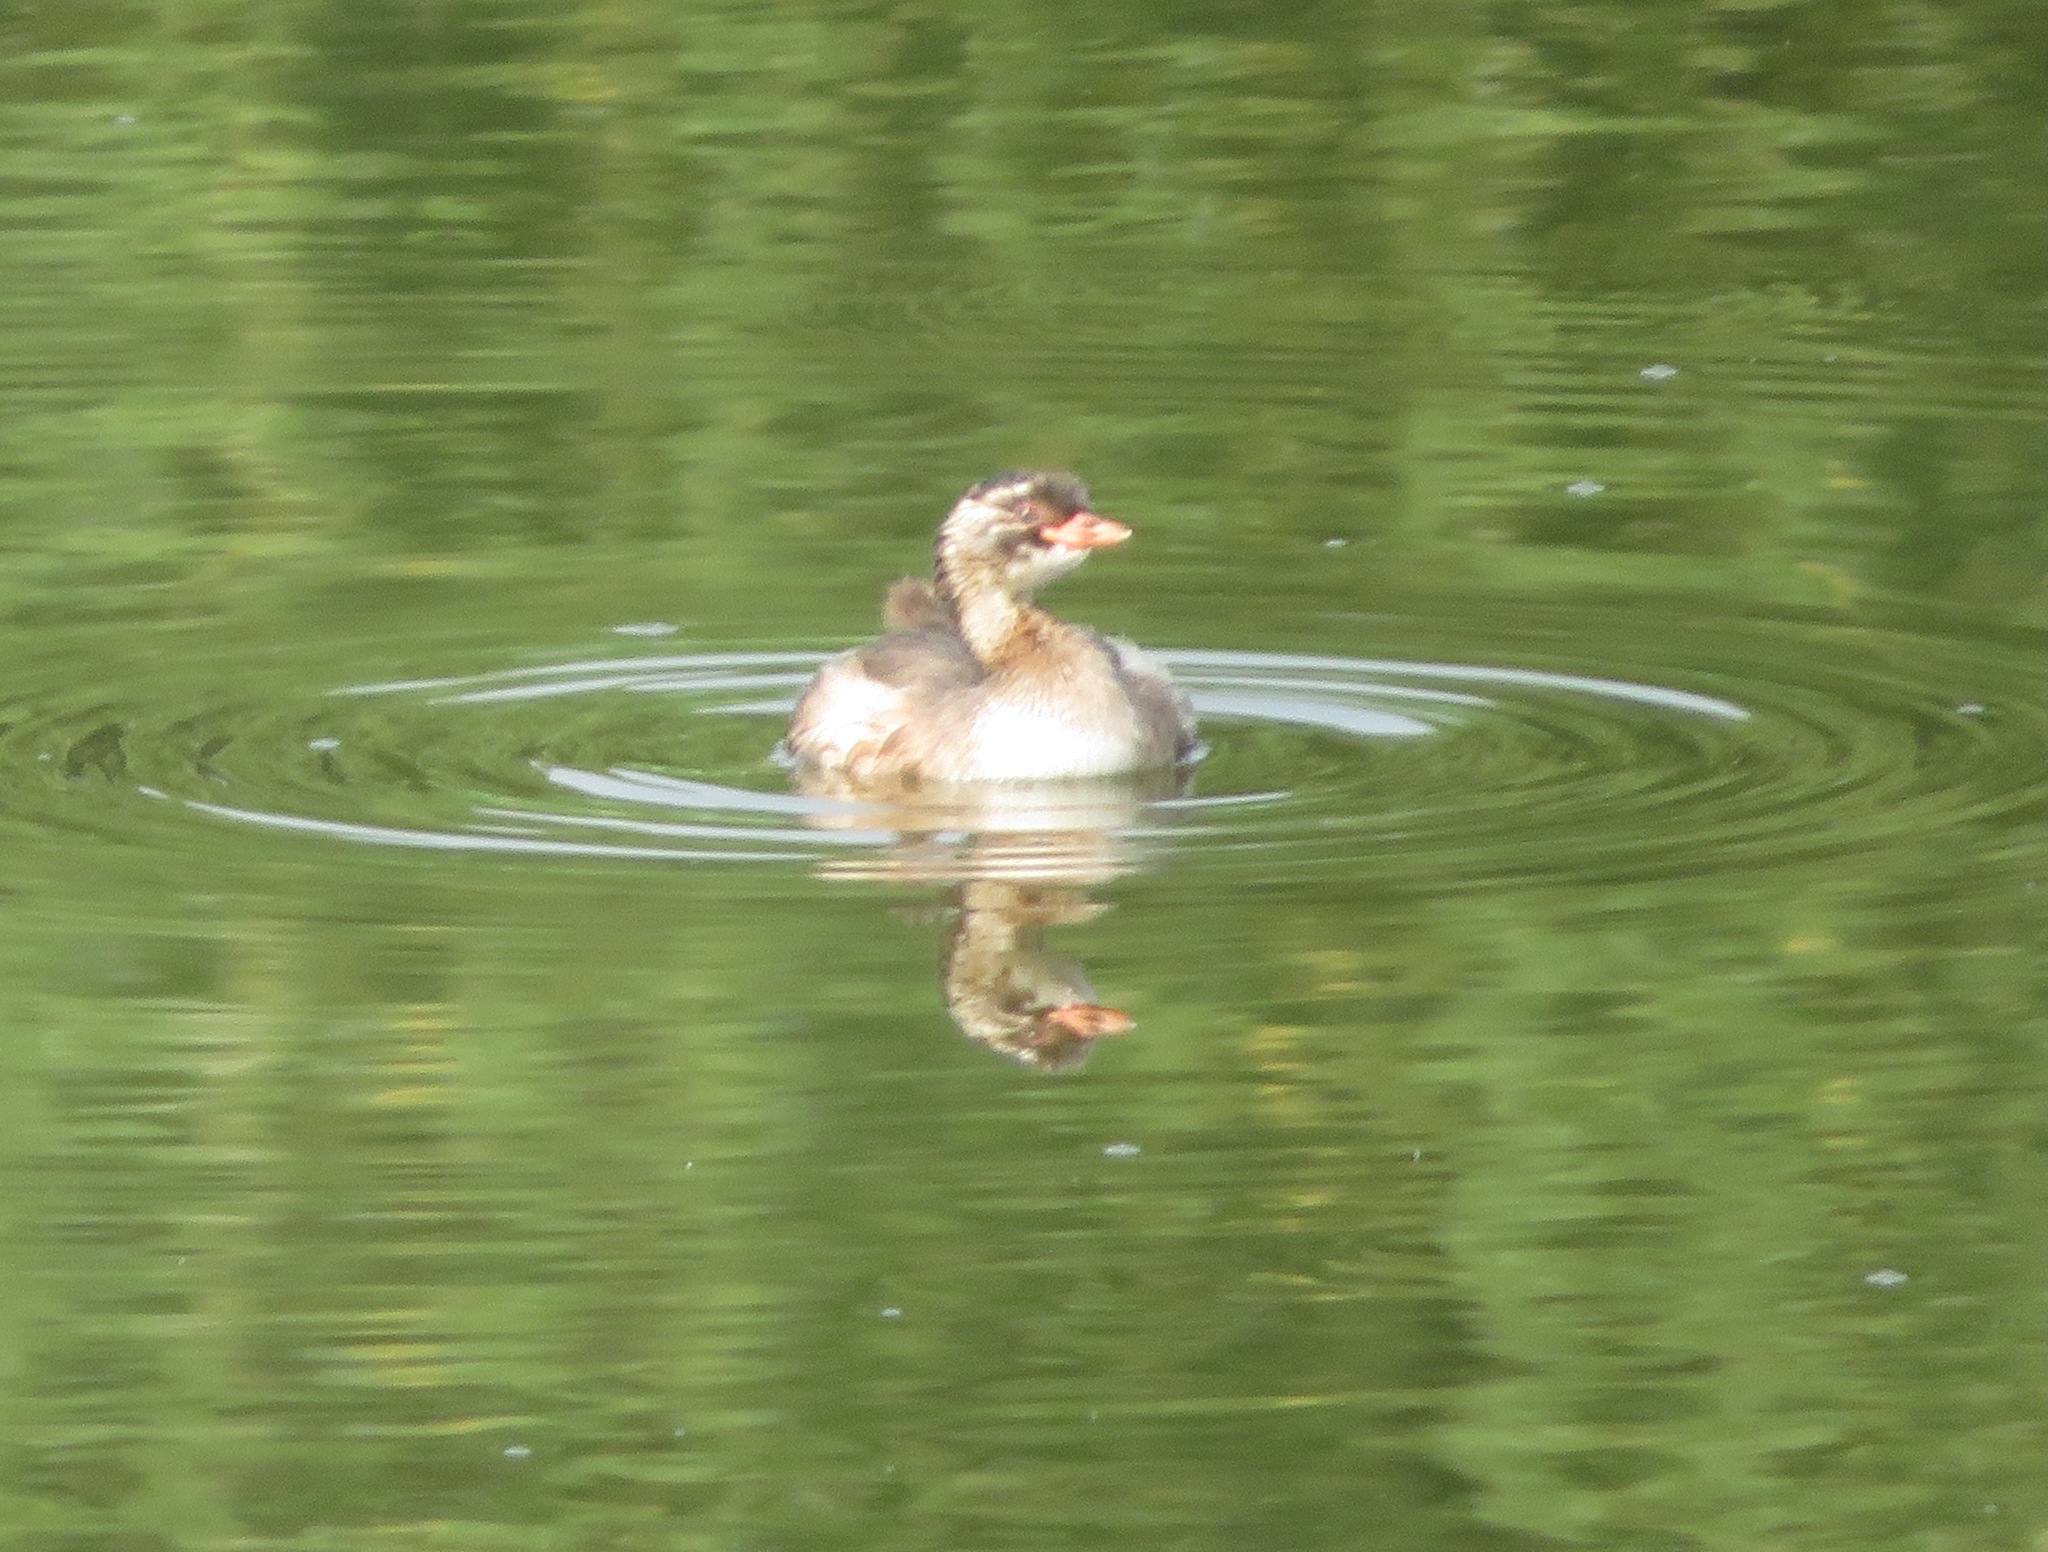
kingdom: Animalia
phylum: Chordata
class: Aves
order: Podicipediformes
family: Podicipedidae
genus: Tachybaptus
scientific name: Tachybaptus ruficollis
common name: Little grebe
